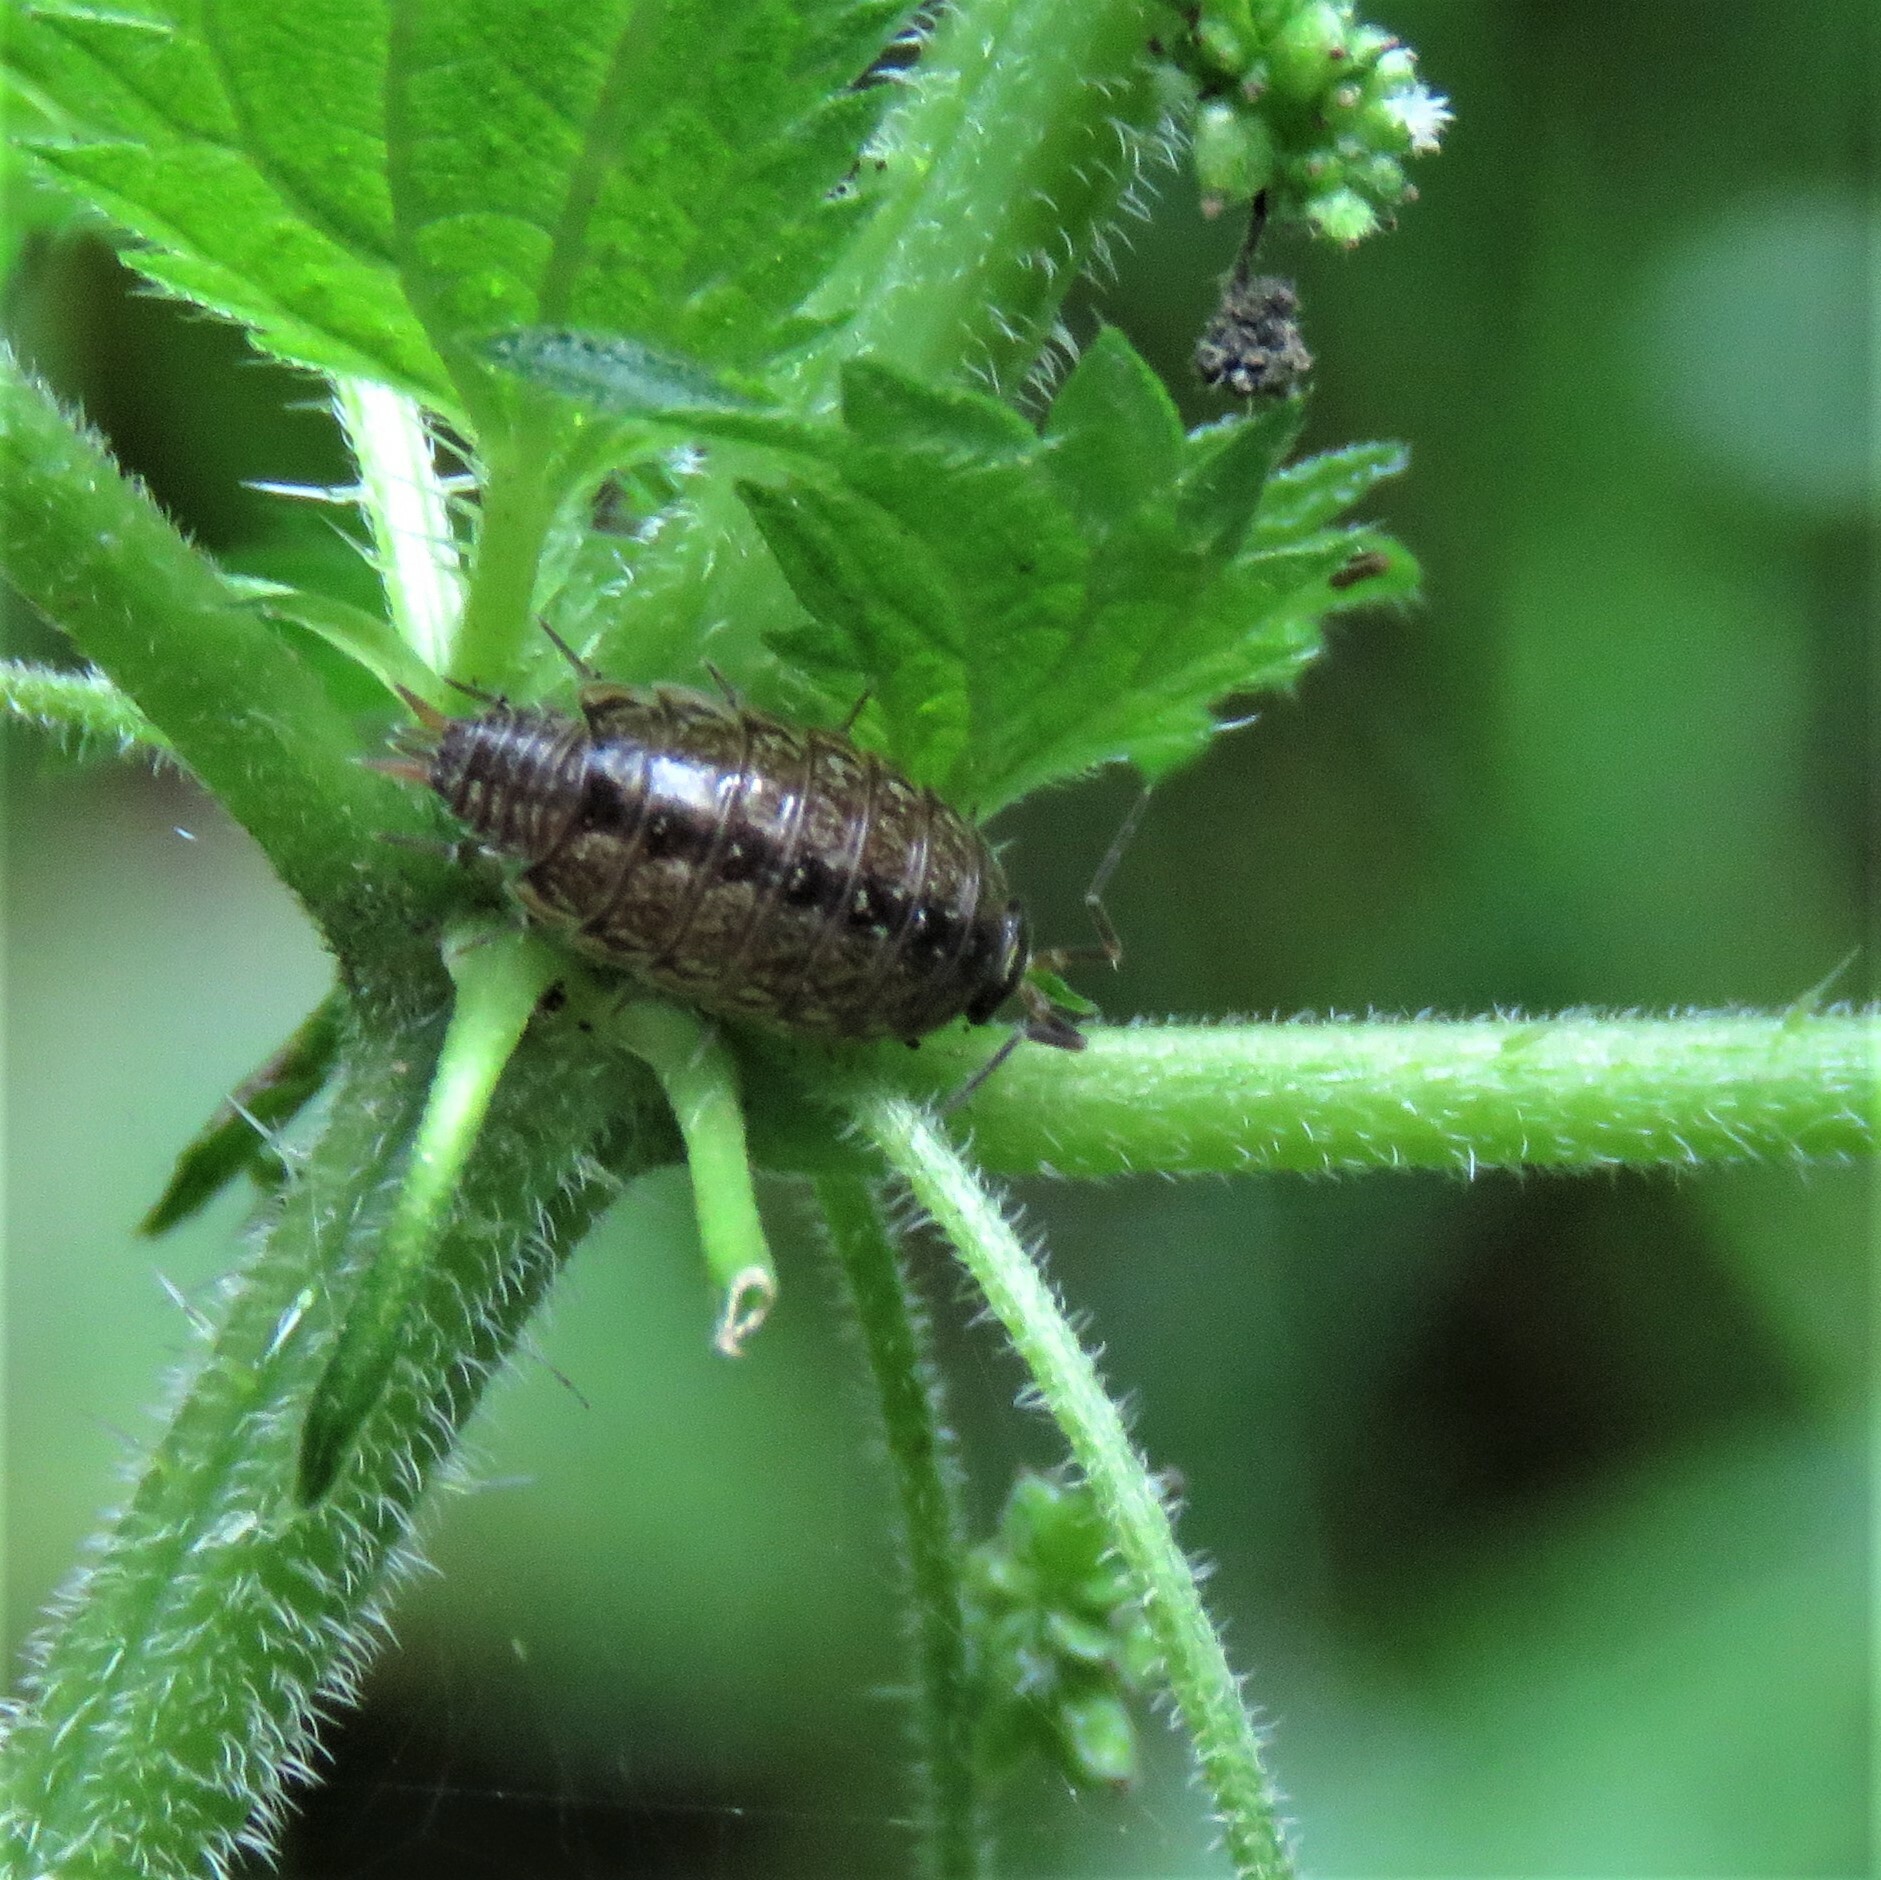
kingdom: Animalia
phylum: Arthropoda
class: Malacostraca
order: Isopoda
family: Philosciidae
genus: Philoscia
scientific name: Philoscia muscorum
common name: Common striped woodlouse
